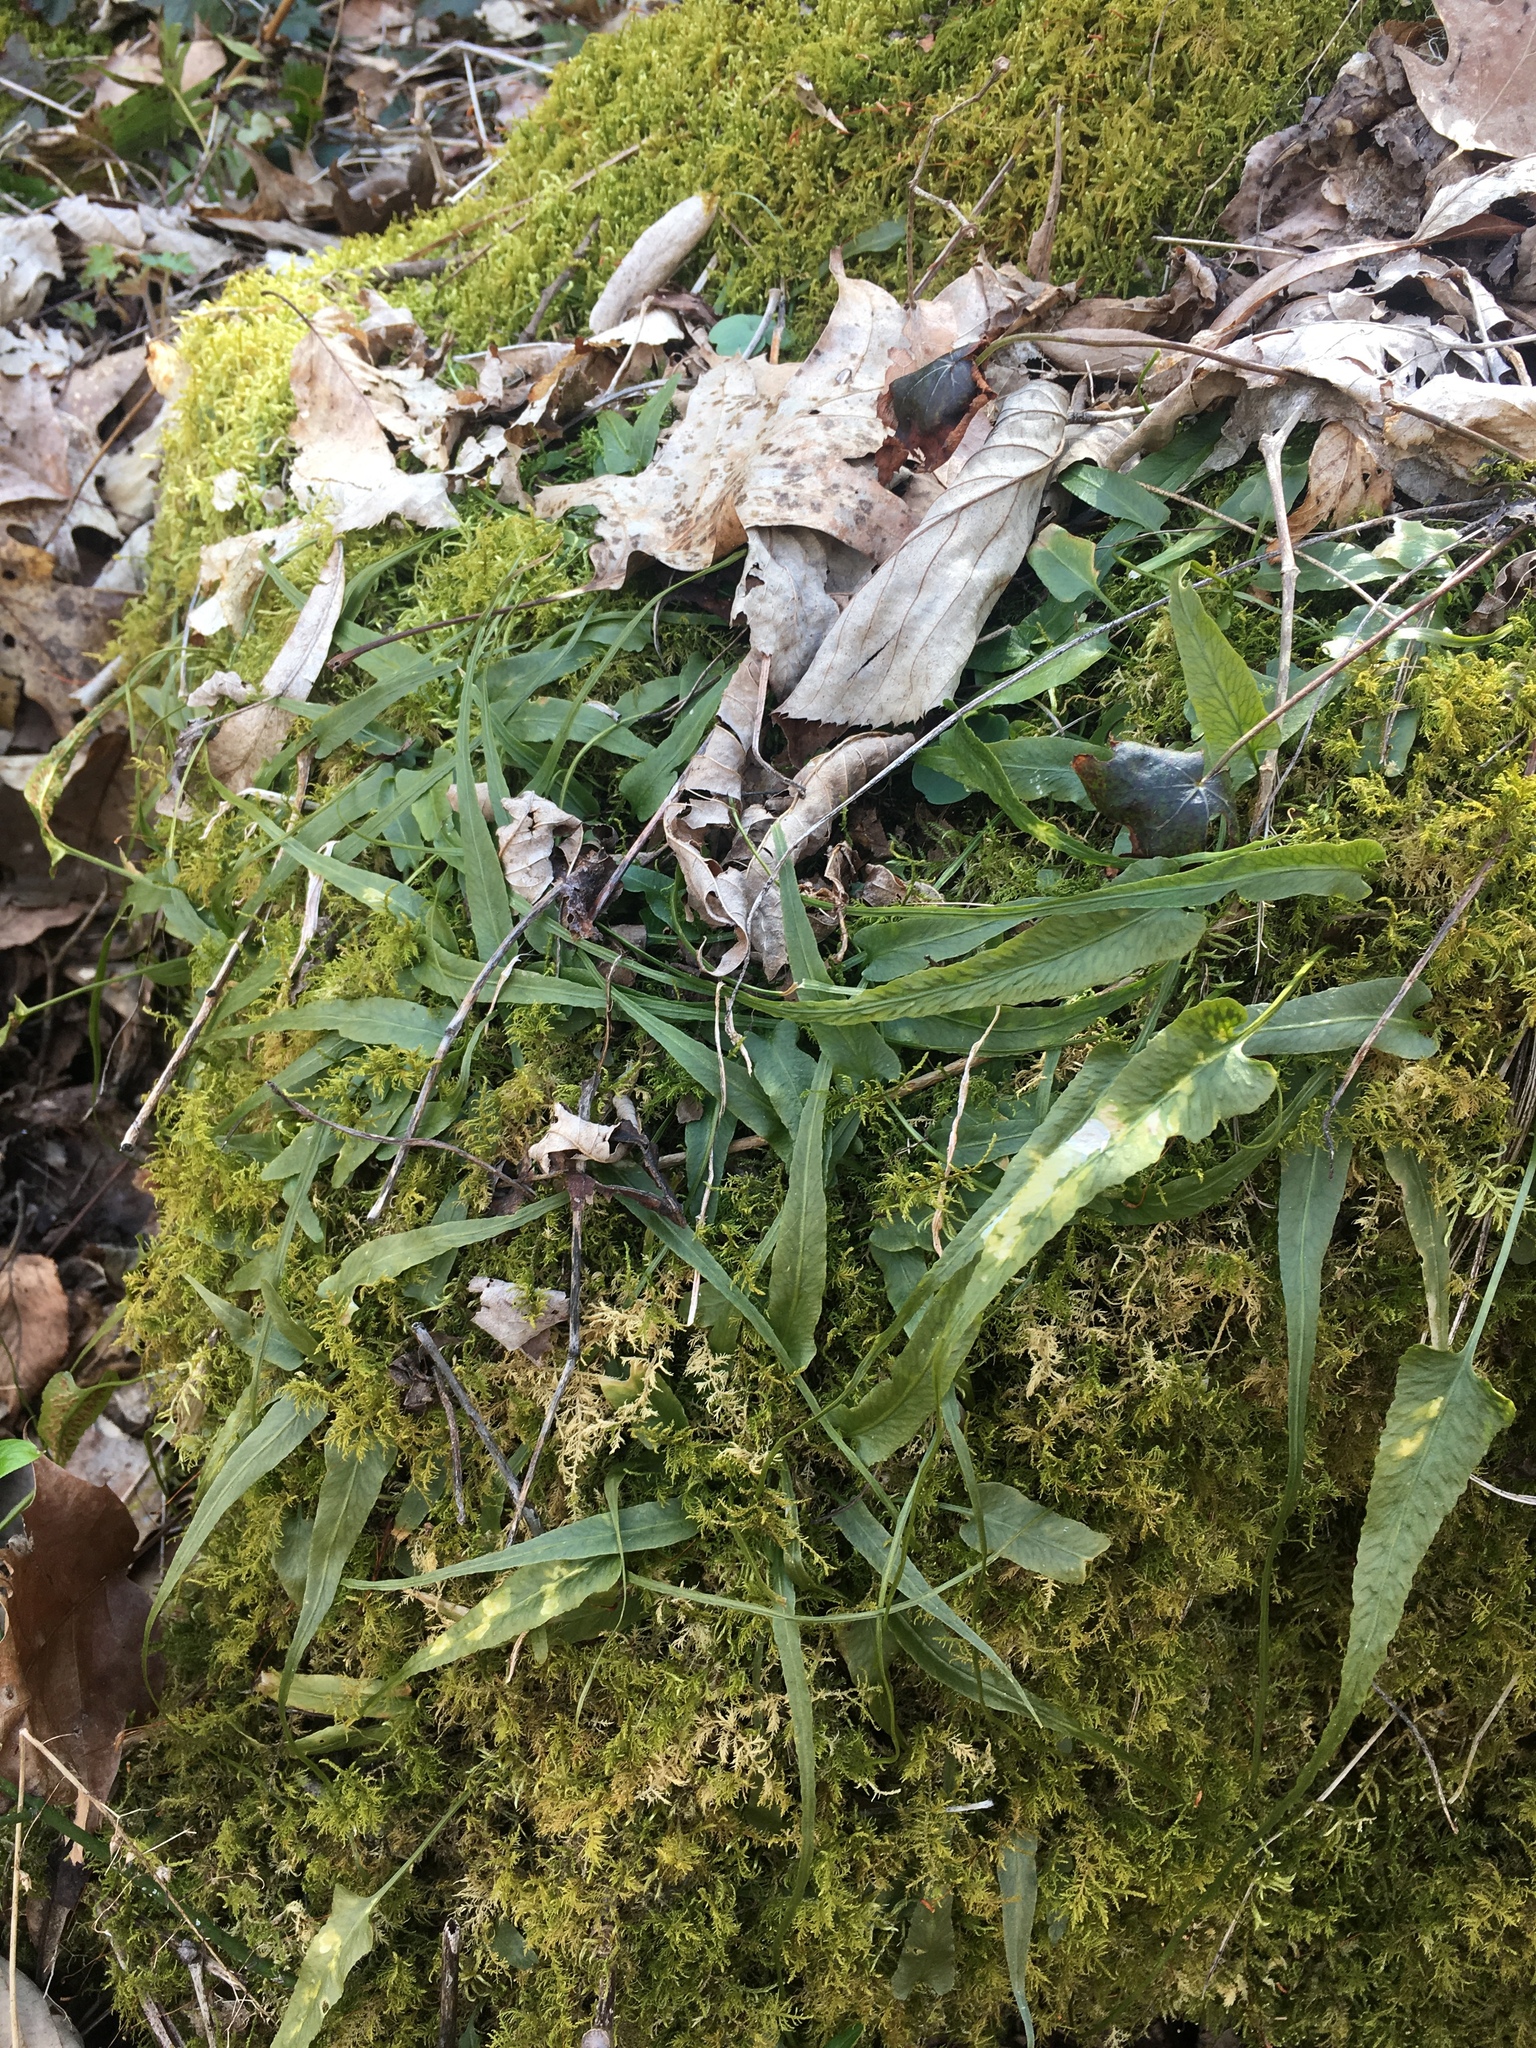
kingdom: Plantae
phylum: Tracheophyta
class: Polypodiopsida
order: Polypodiales
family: Aspleniaceae
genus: Asplenium
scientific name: Asplenium rhizophyllum
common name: Walking fern
